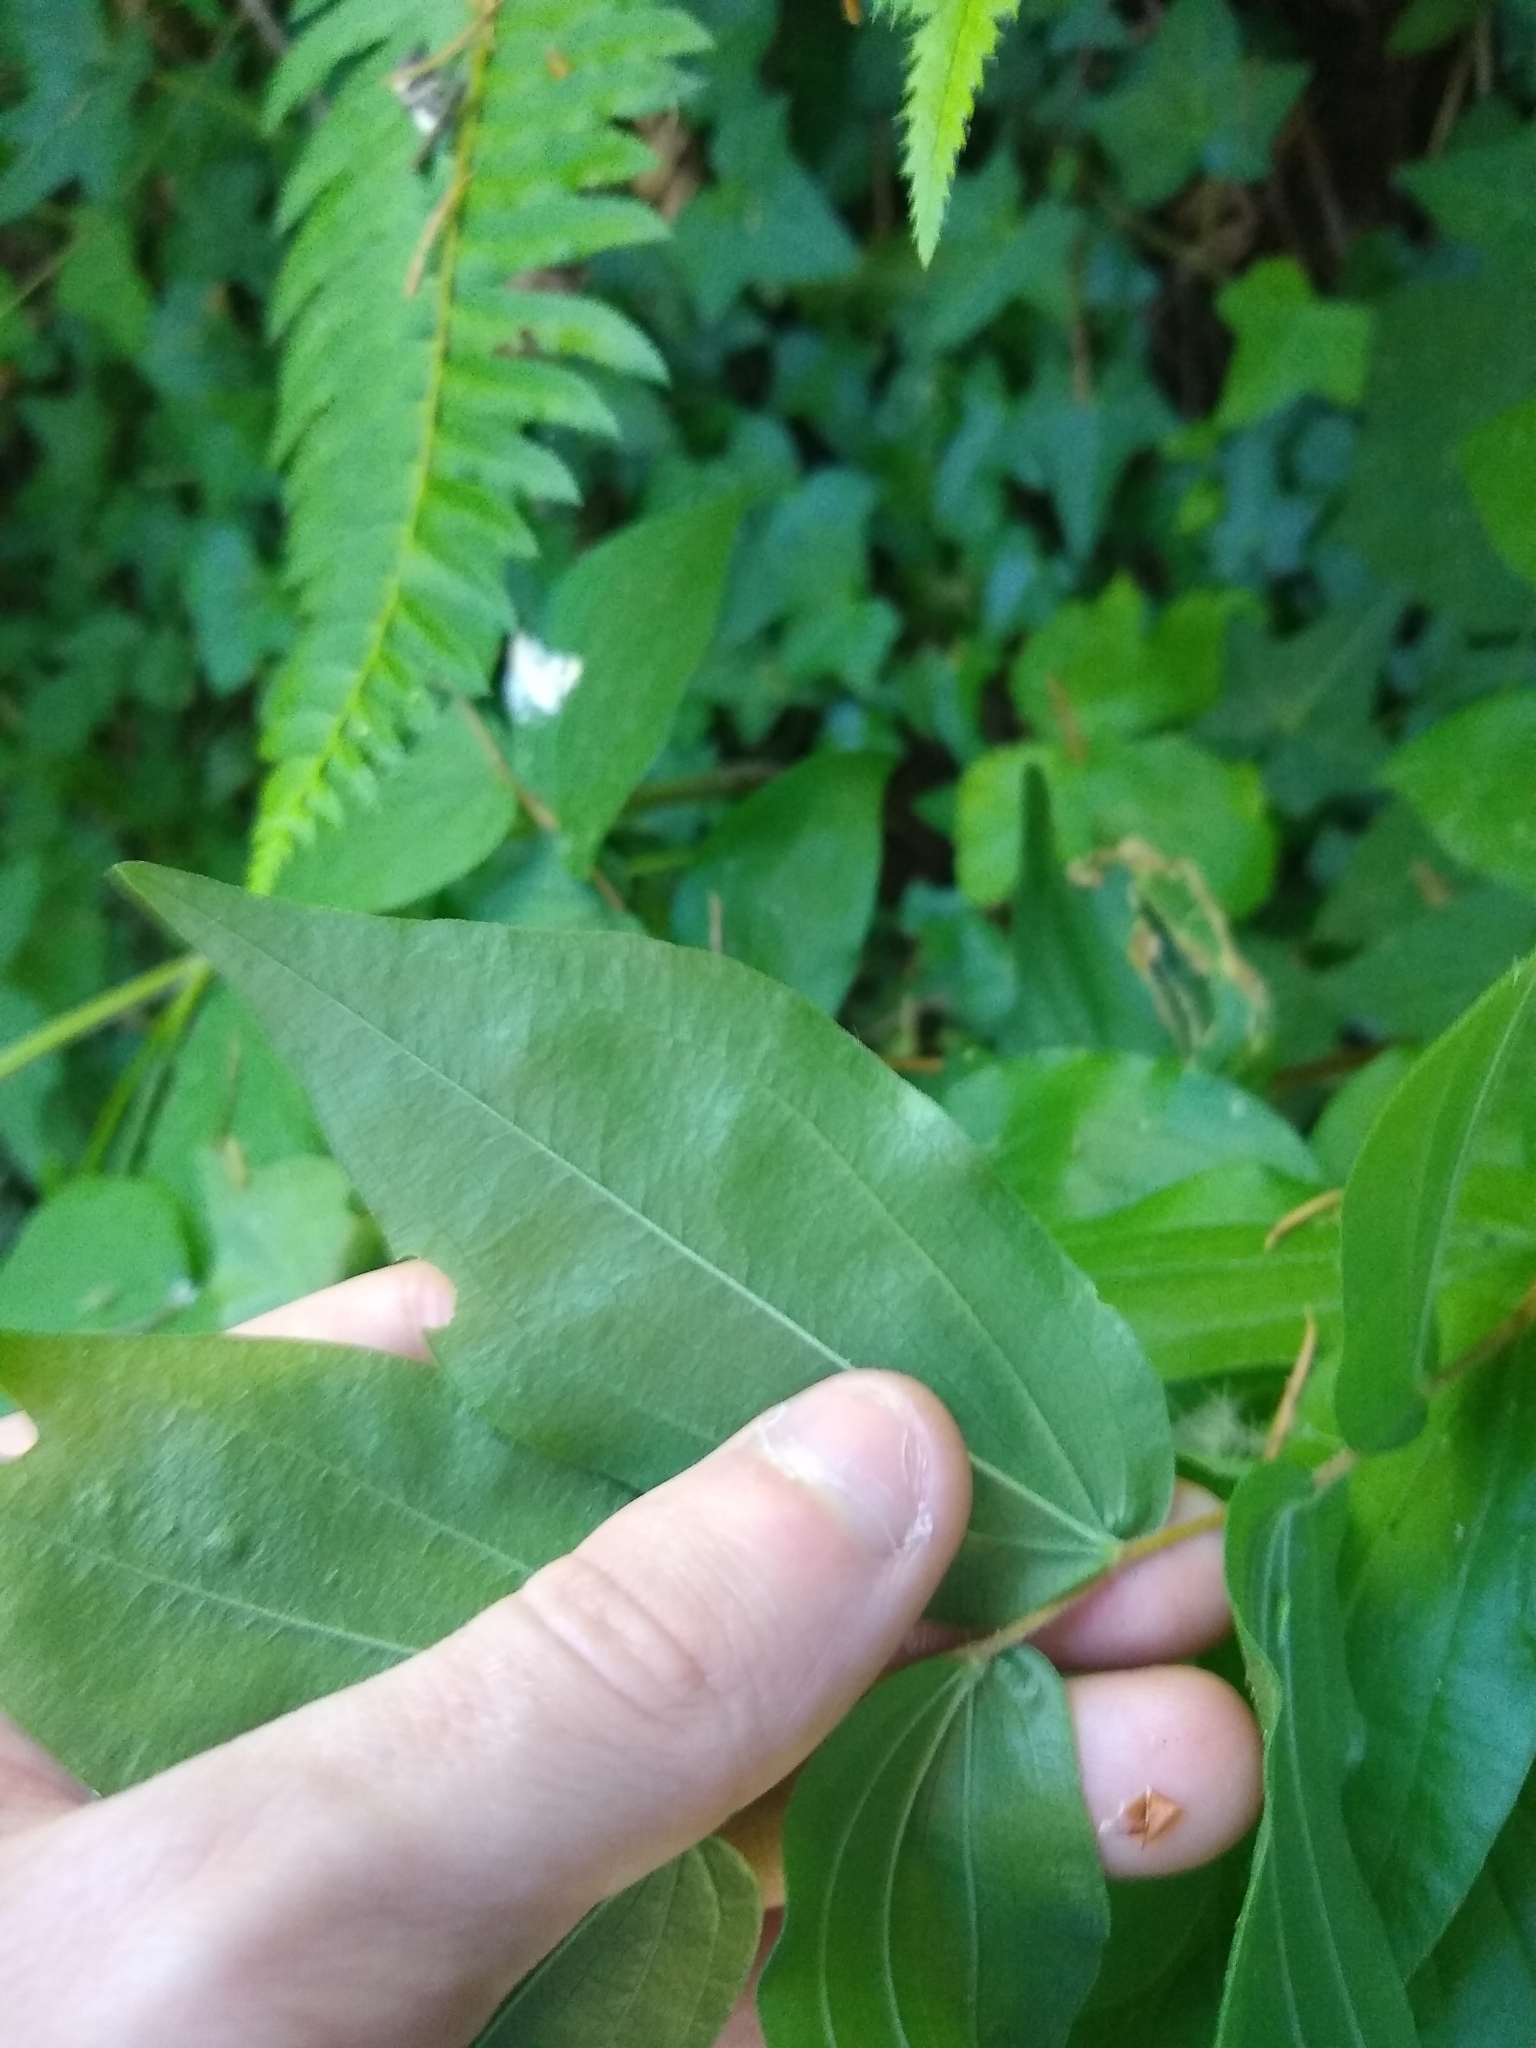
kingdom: Plantae
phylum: Tracheophyta
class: Liliopsida
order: Liliales
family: Liliaceae
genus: Prosartes
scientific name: Prosartes hookeri
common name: Fairy-bells
